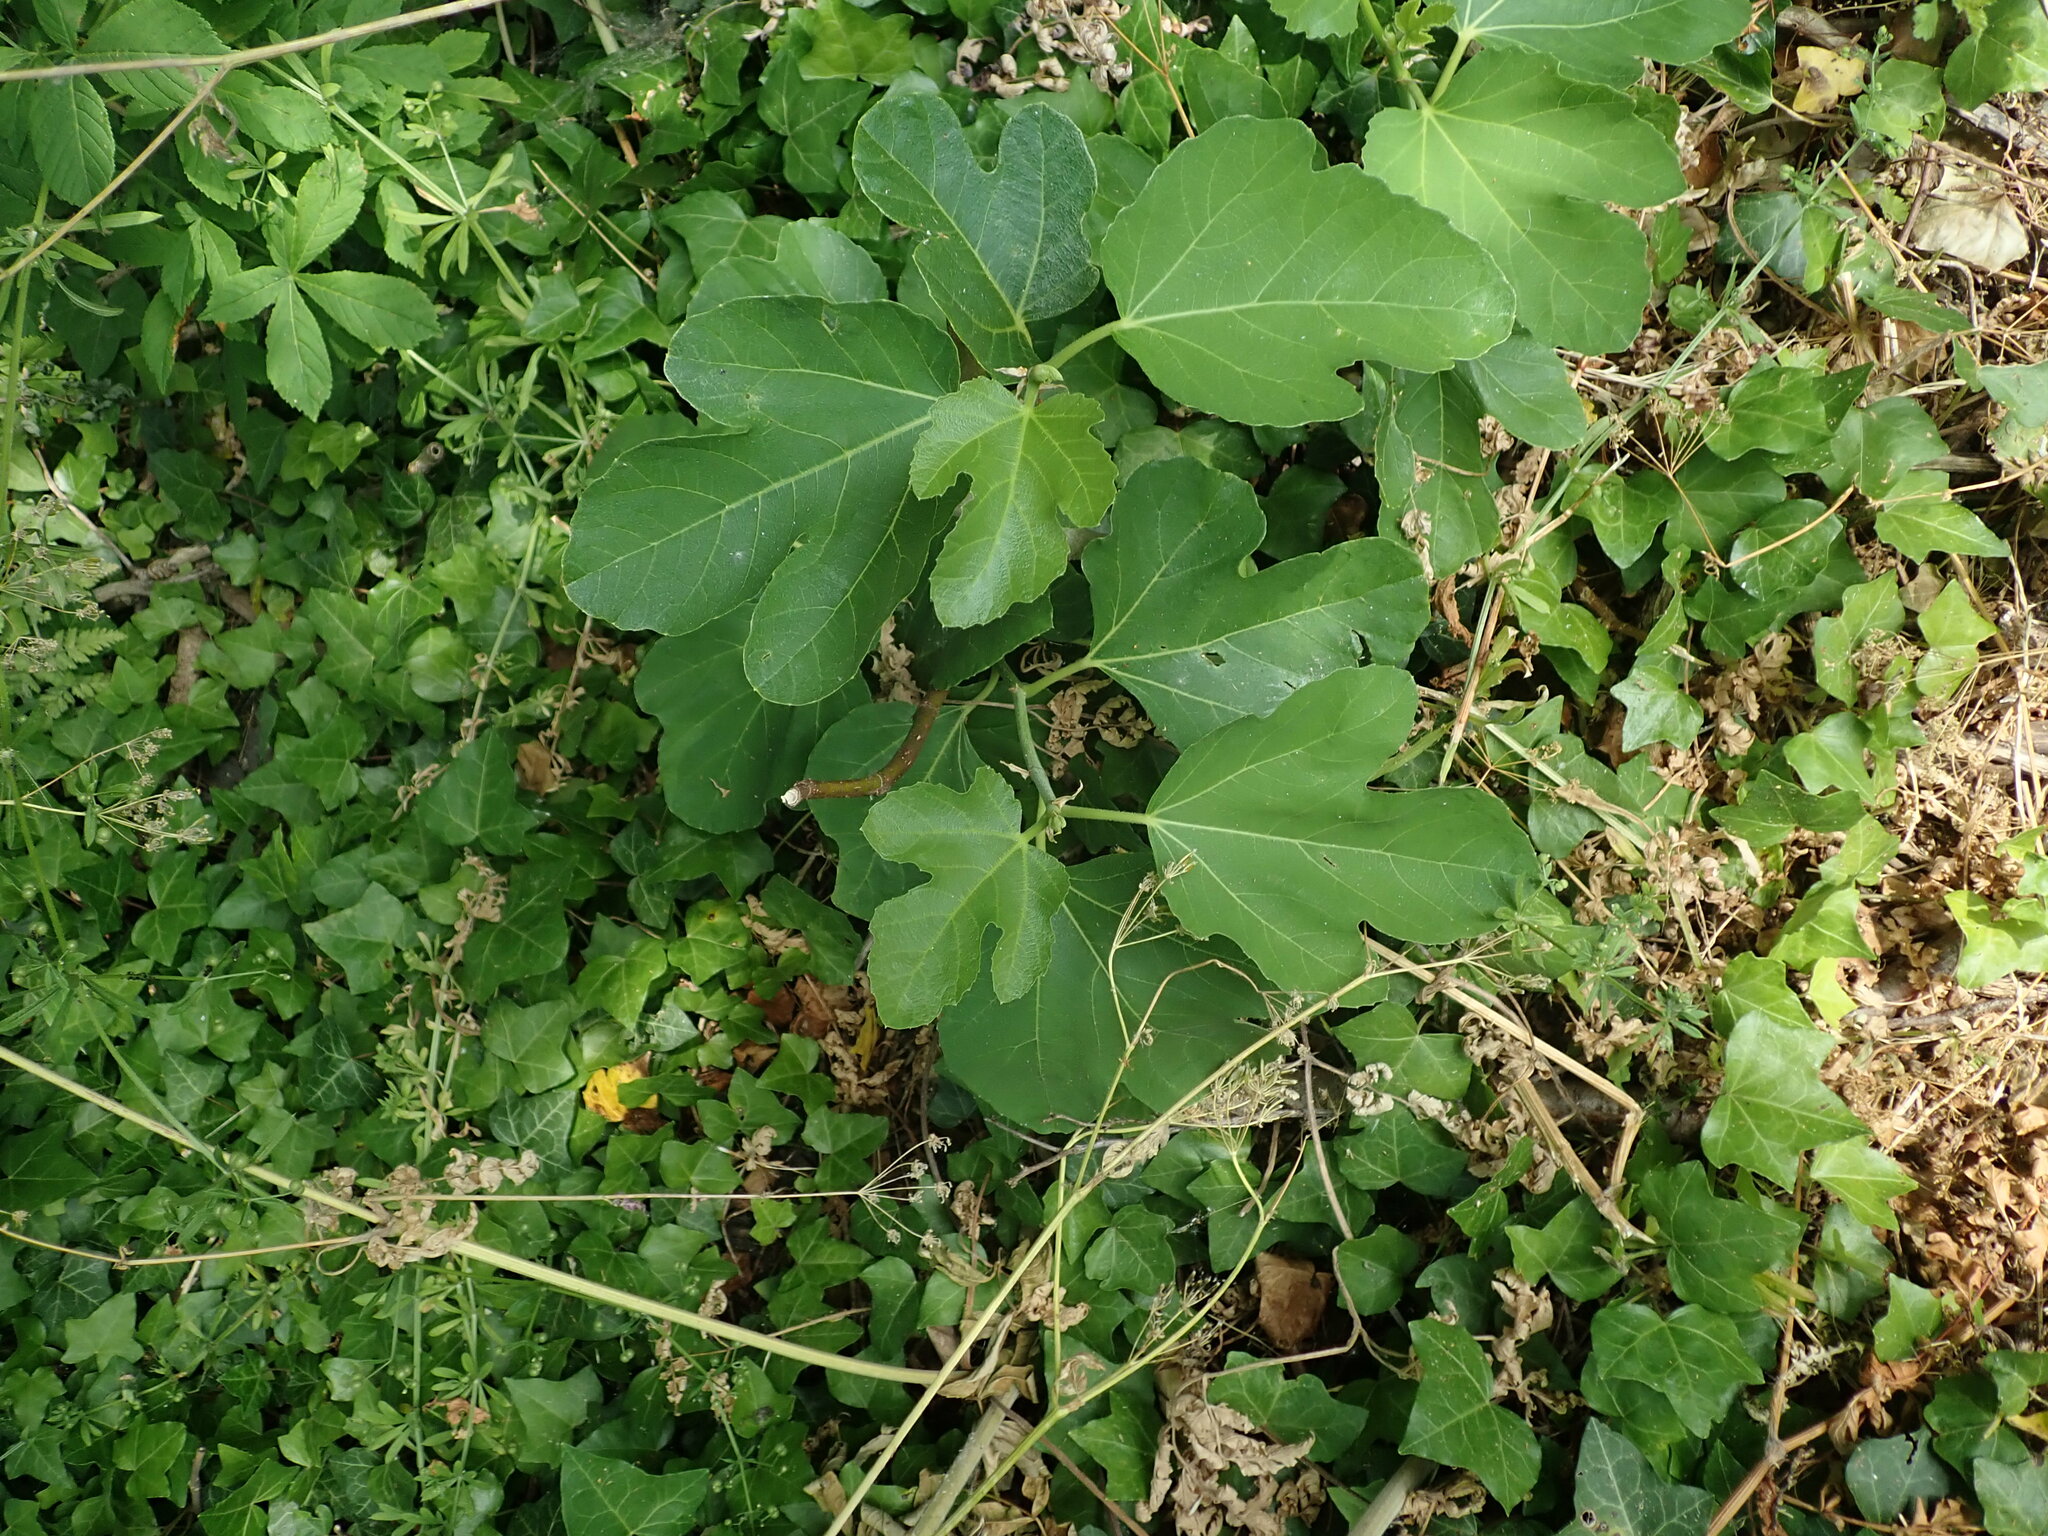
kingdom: Plantae
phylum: Tracheophyta
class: Magnoliopsida
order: Rosales
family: Moraceae
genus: Ficus
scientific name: Ficus carica
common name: Fig
